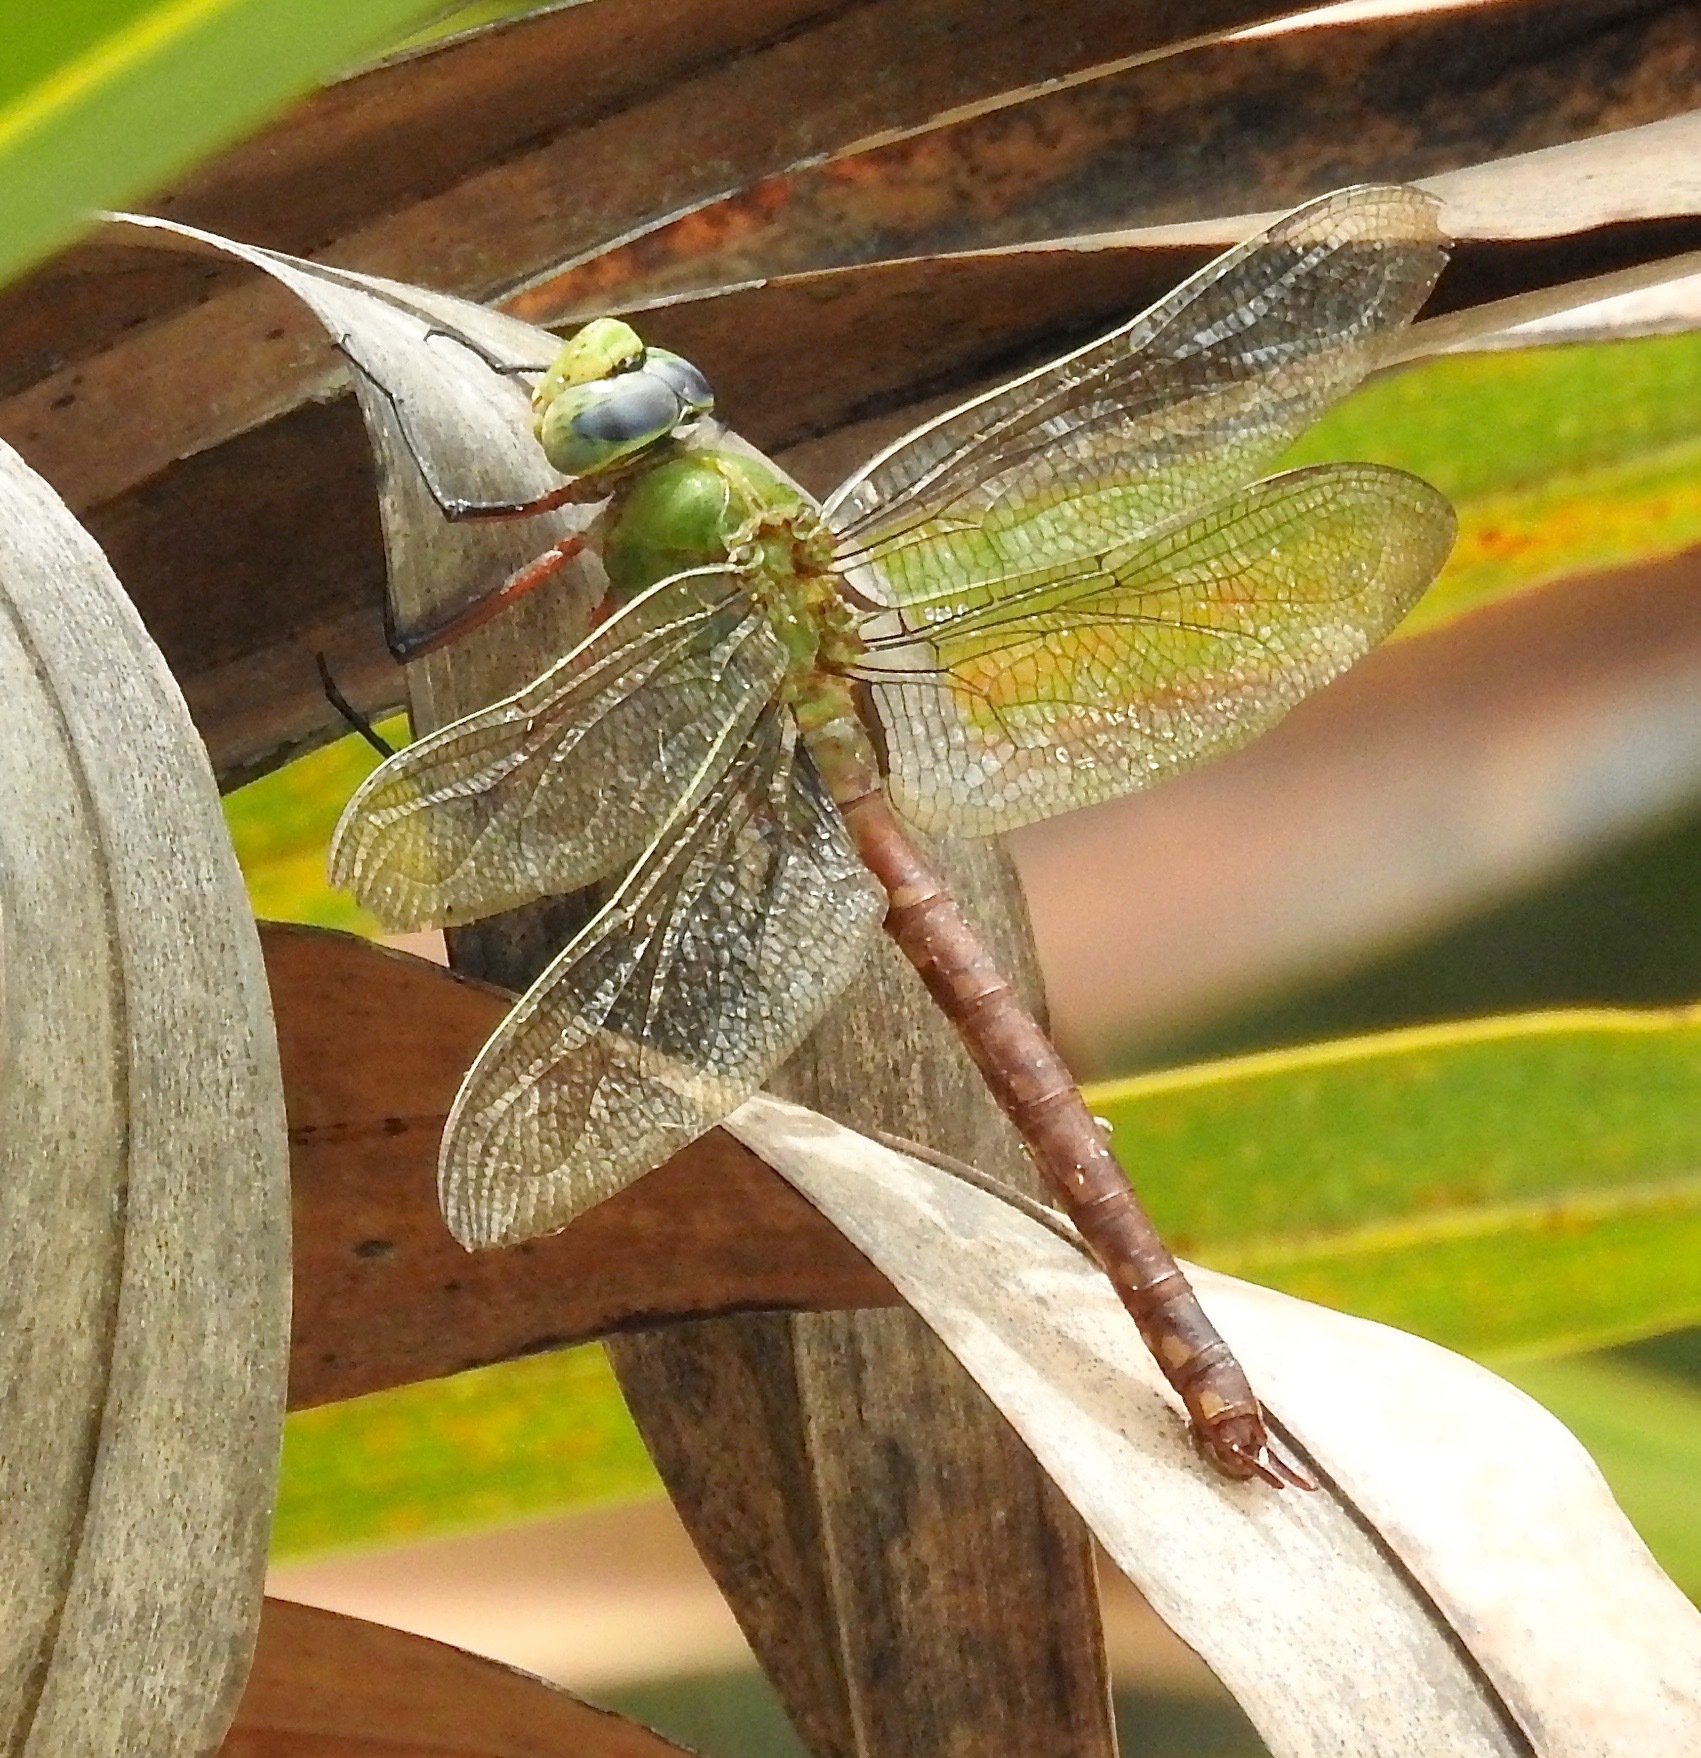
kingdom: Animalia
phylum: Arthropoda
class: Insecta
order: Odonata
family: Aeshnidae
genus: Anax
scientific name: Anax longipes
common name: Comet darner
